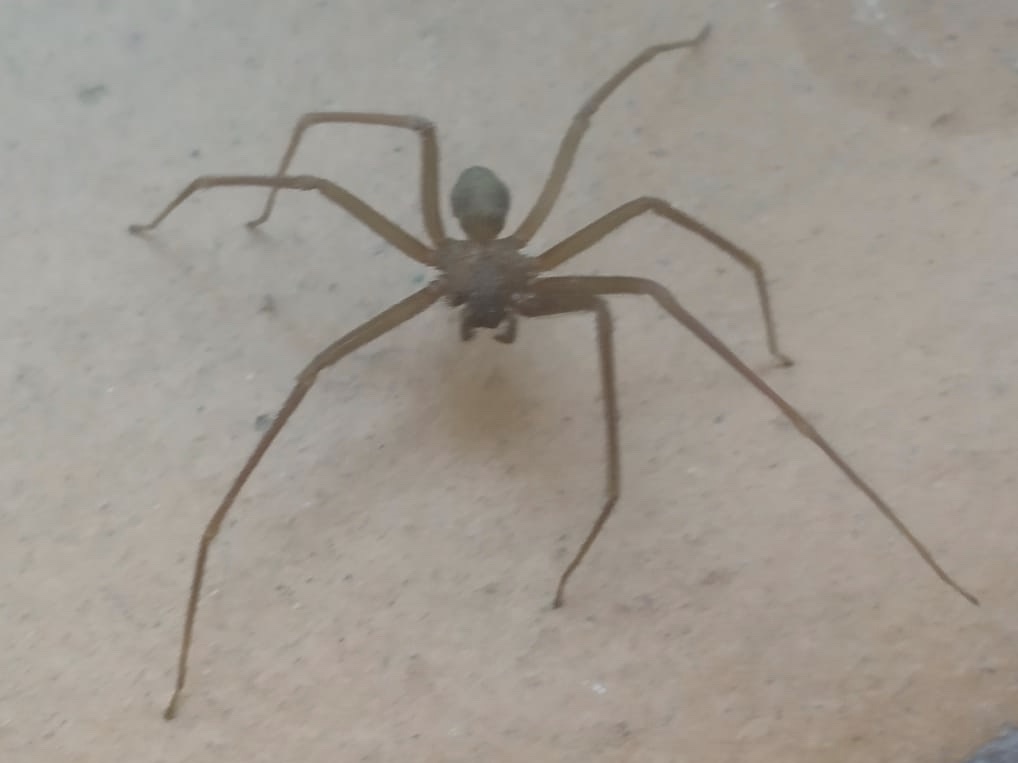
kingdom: Animalia
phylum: Arthropoda
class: Arachnida
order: Araneae
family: Sicariidae
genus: Loxosceles
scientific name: Loxosceles rufescens
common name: Mediterranean recluse spider
